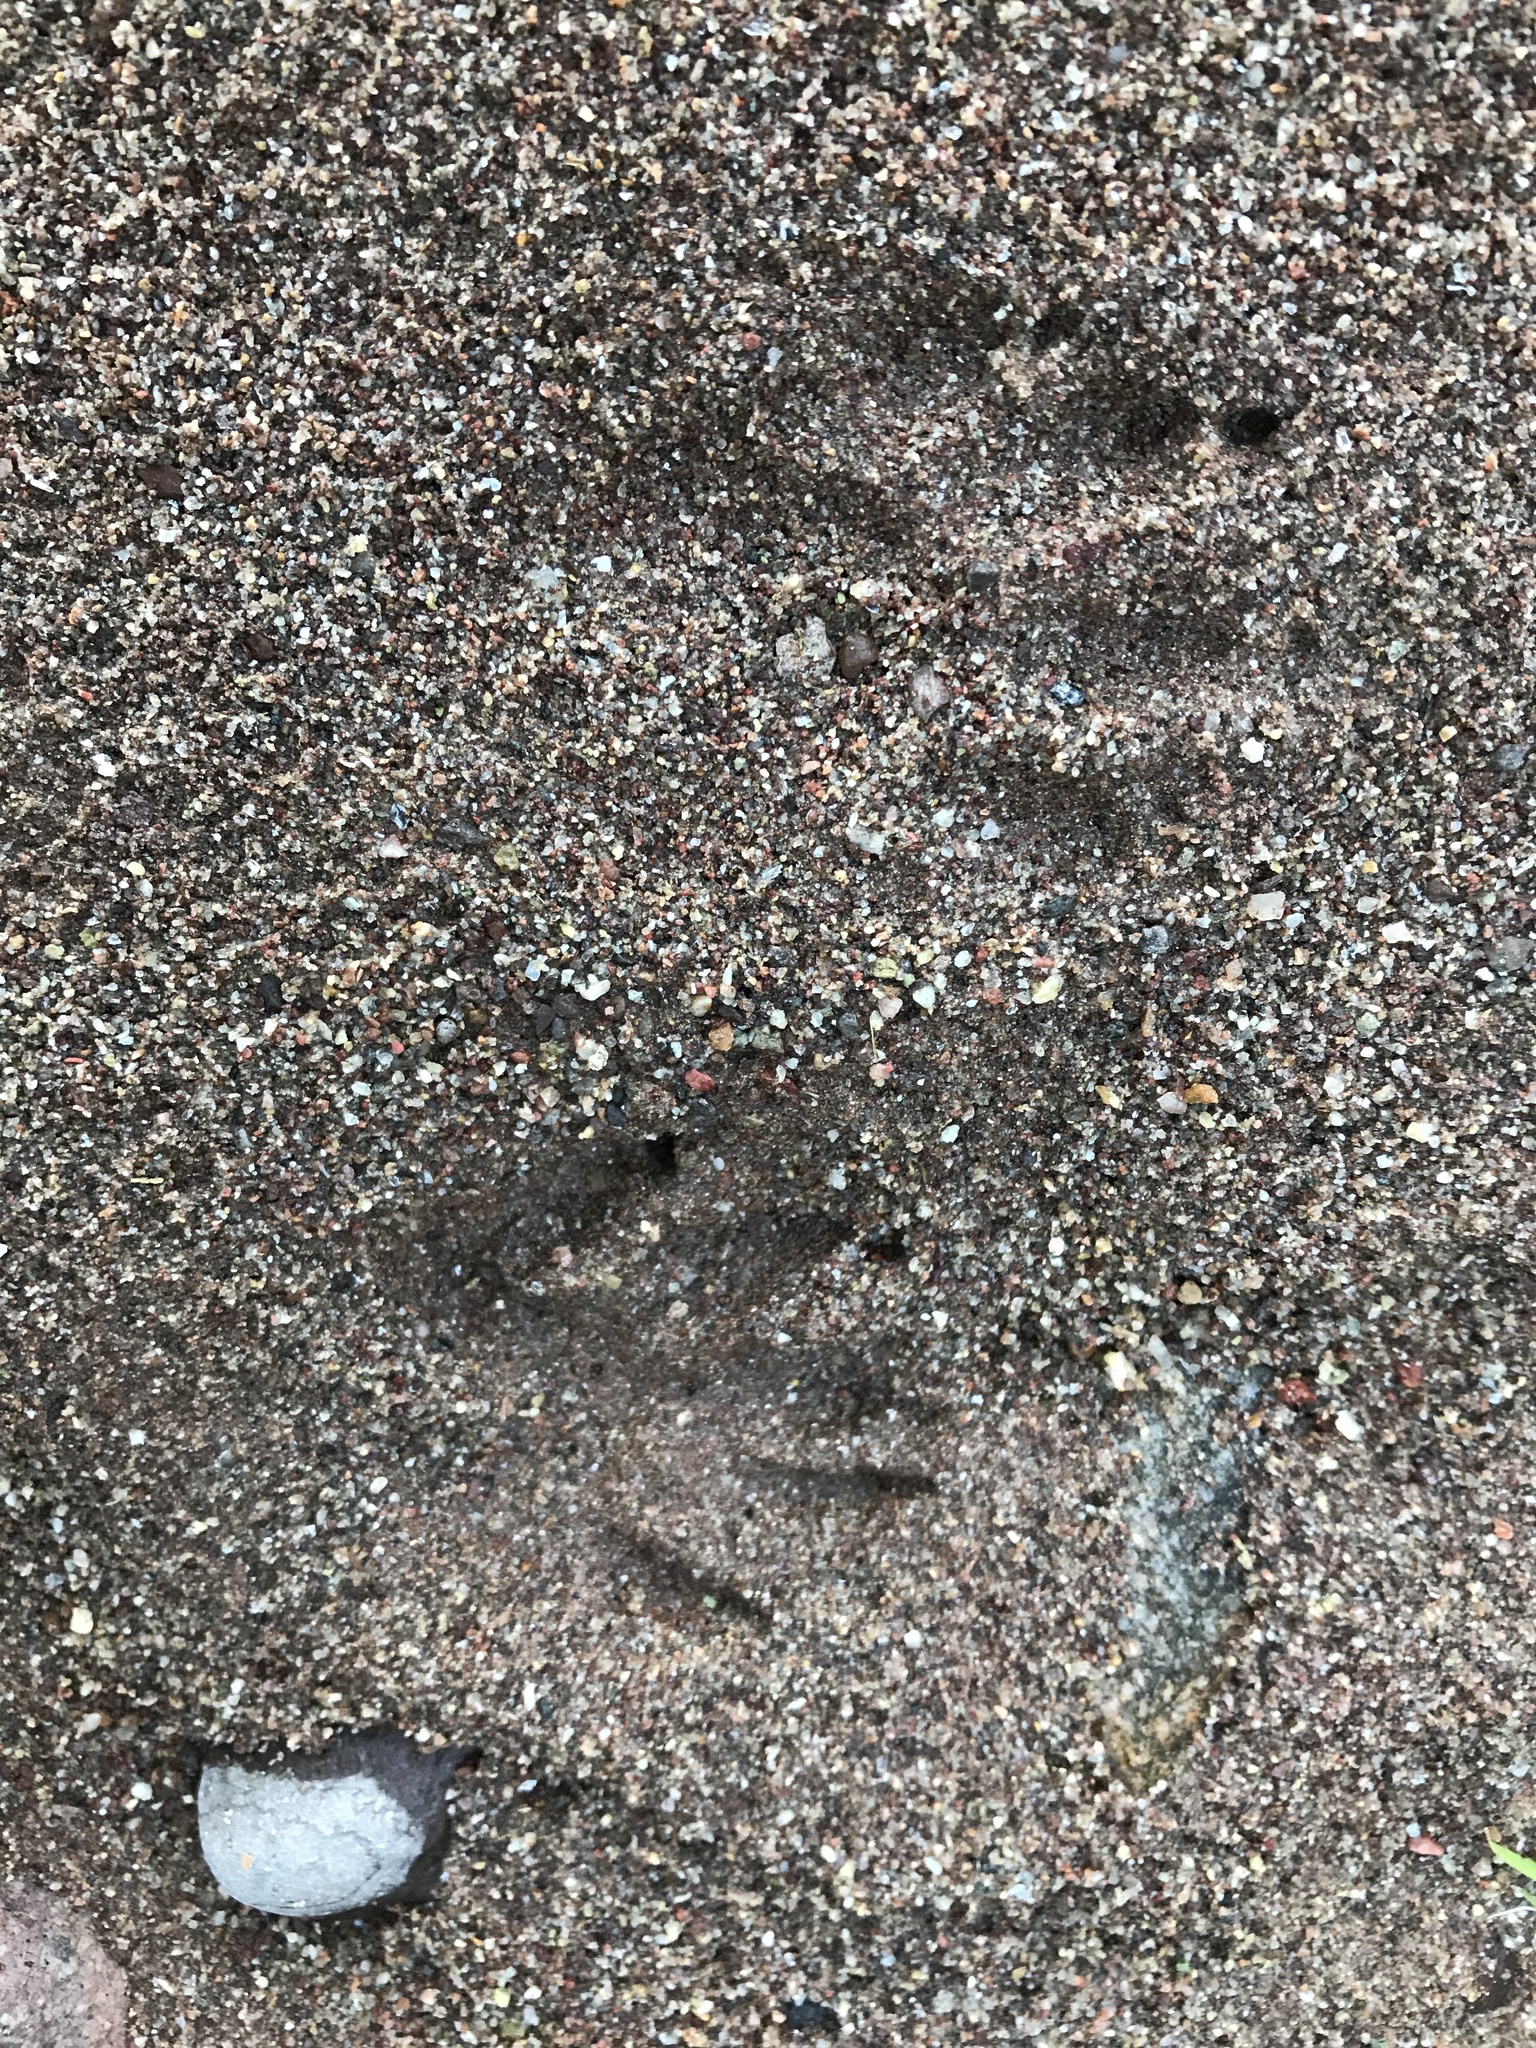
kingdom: Animalia
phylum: Chordata
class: Mammalia
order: Carnivora
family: Procyonidae
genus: Procyon
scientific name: Procyon lotor
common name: Raccoon
